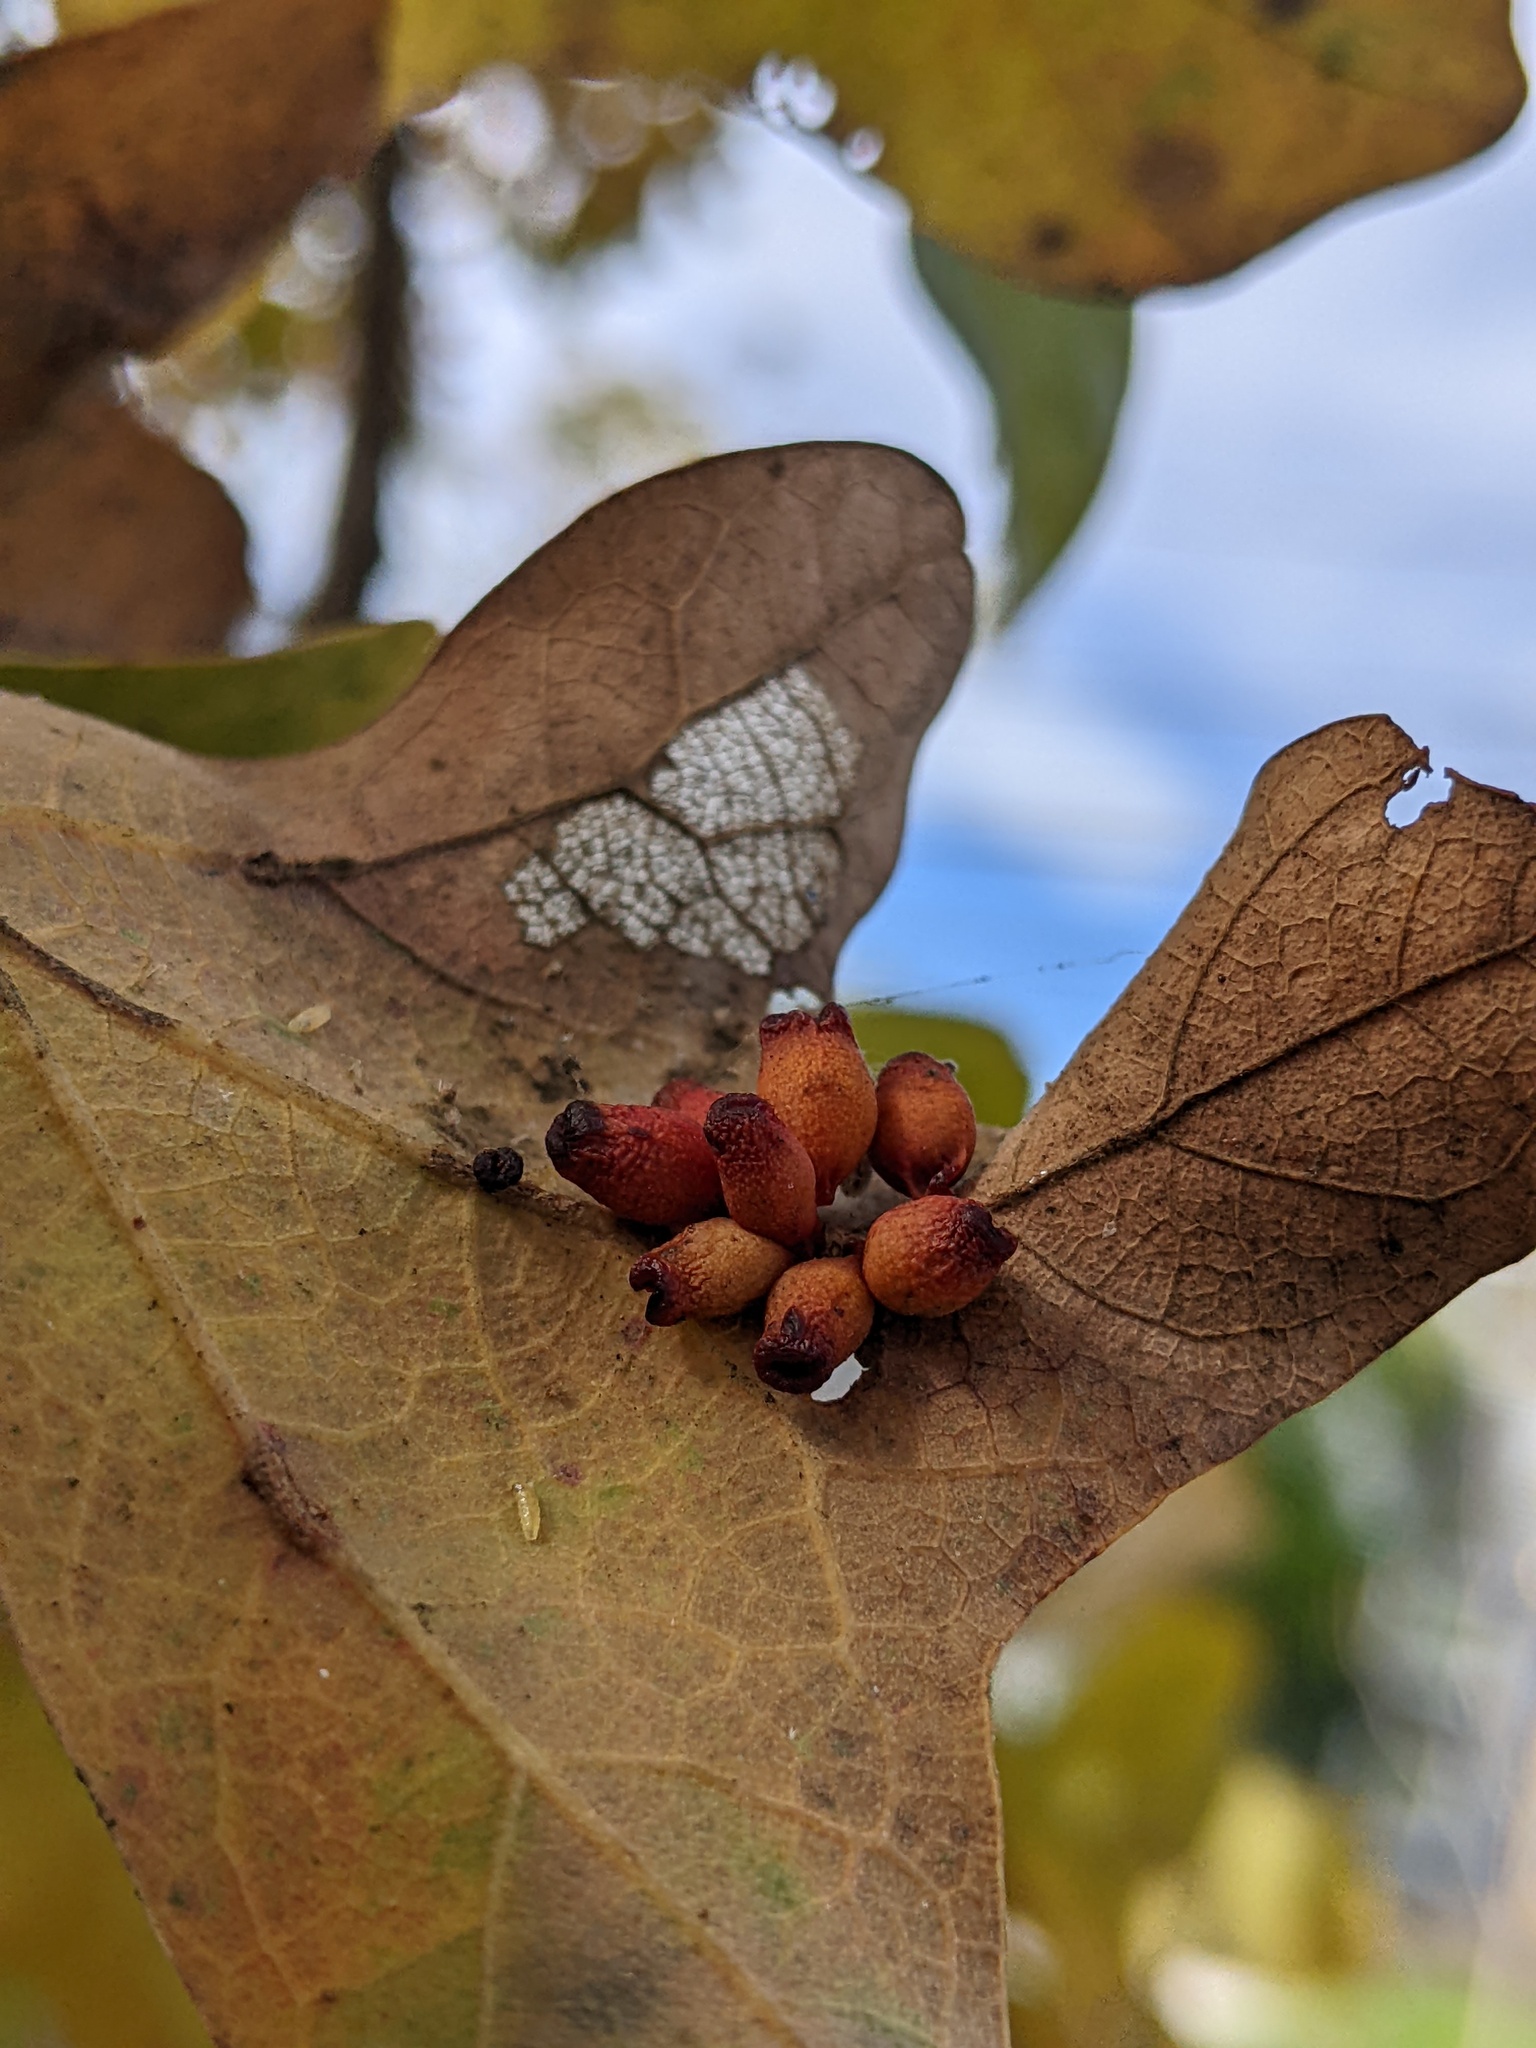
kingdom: Animalia
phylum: Arthropoda
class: Insecta
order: Hymenoptera
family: Cynipidae
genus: Andricus
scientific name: Andricus lustrans
